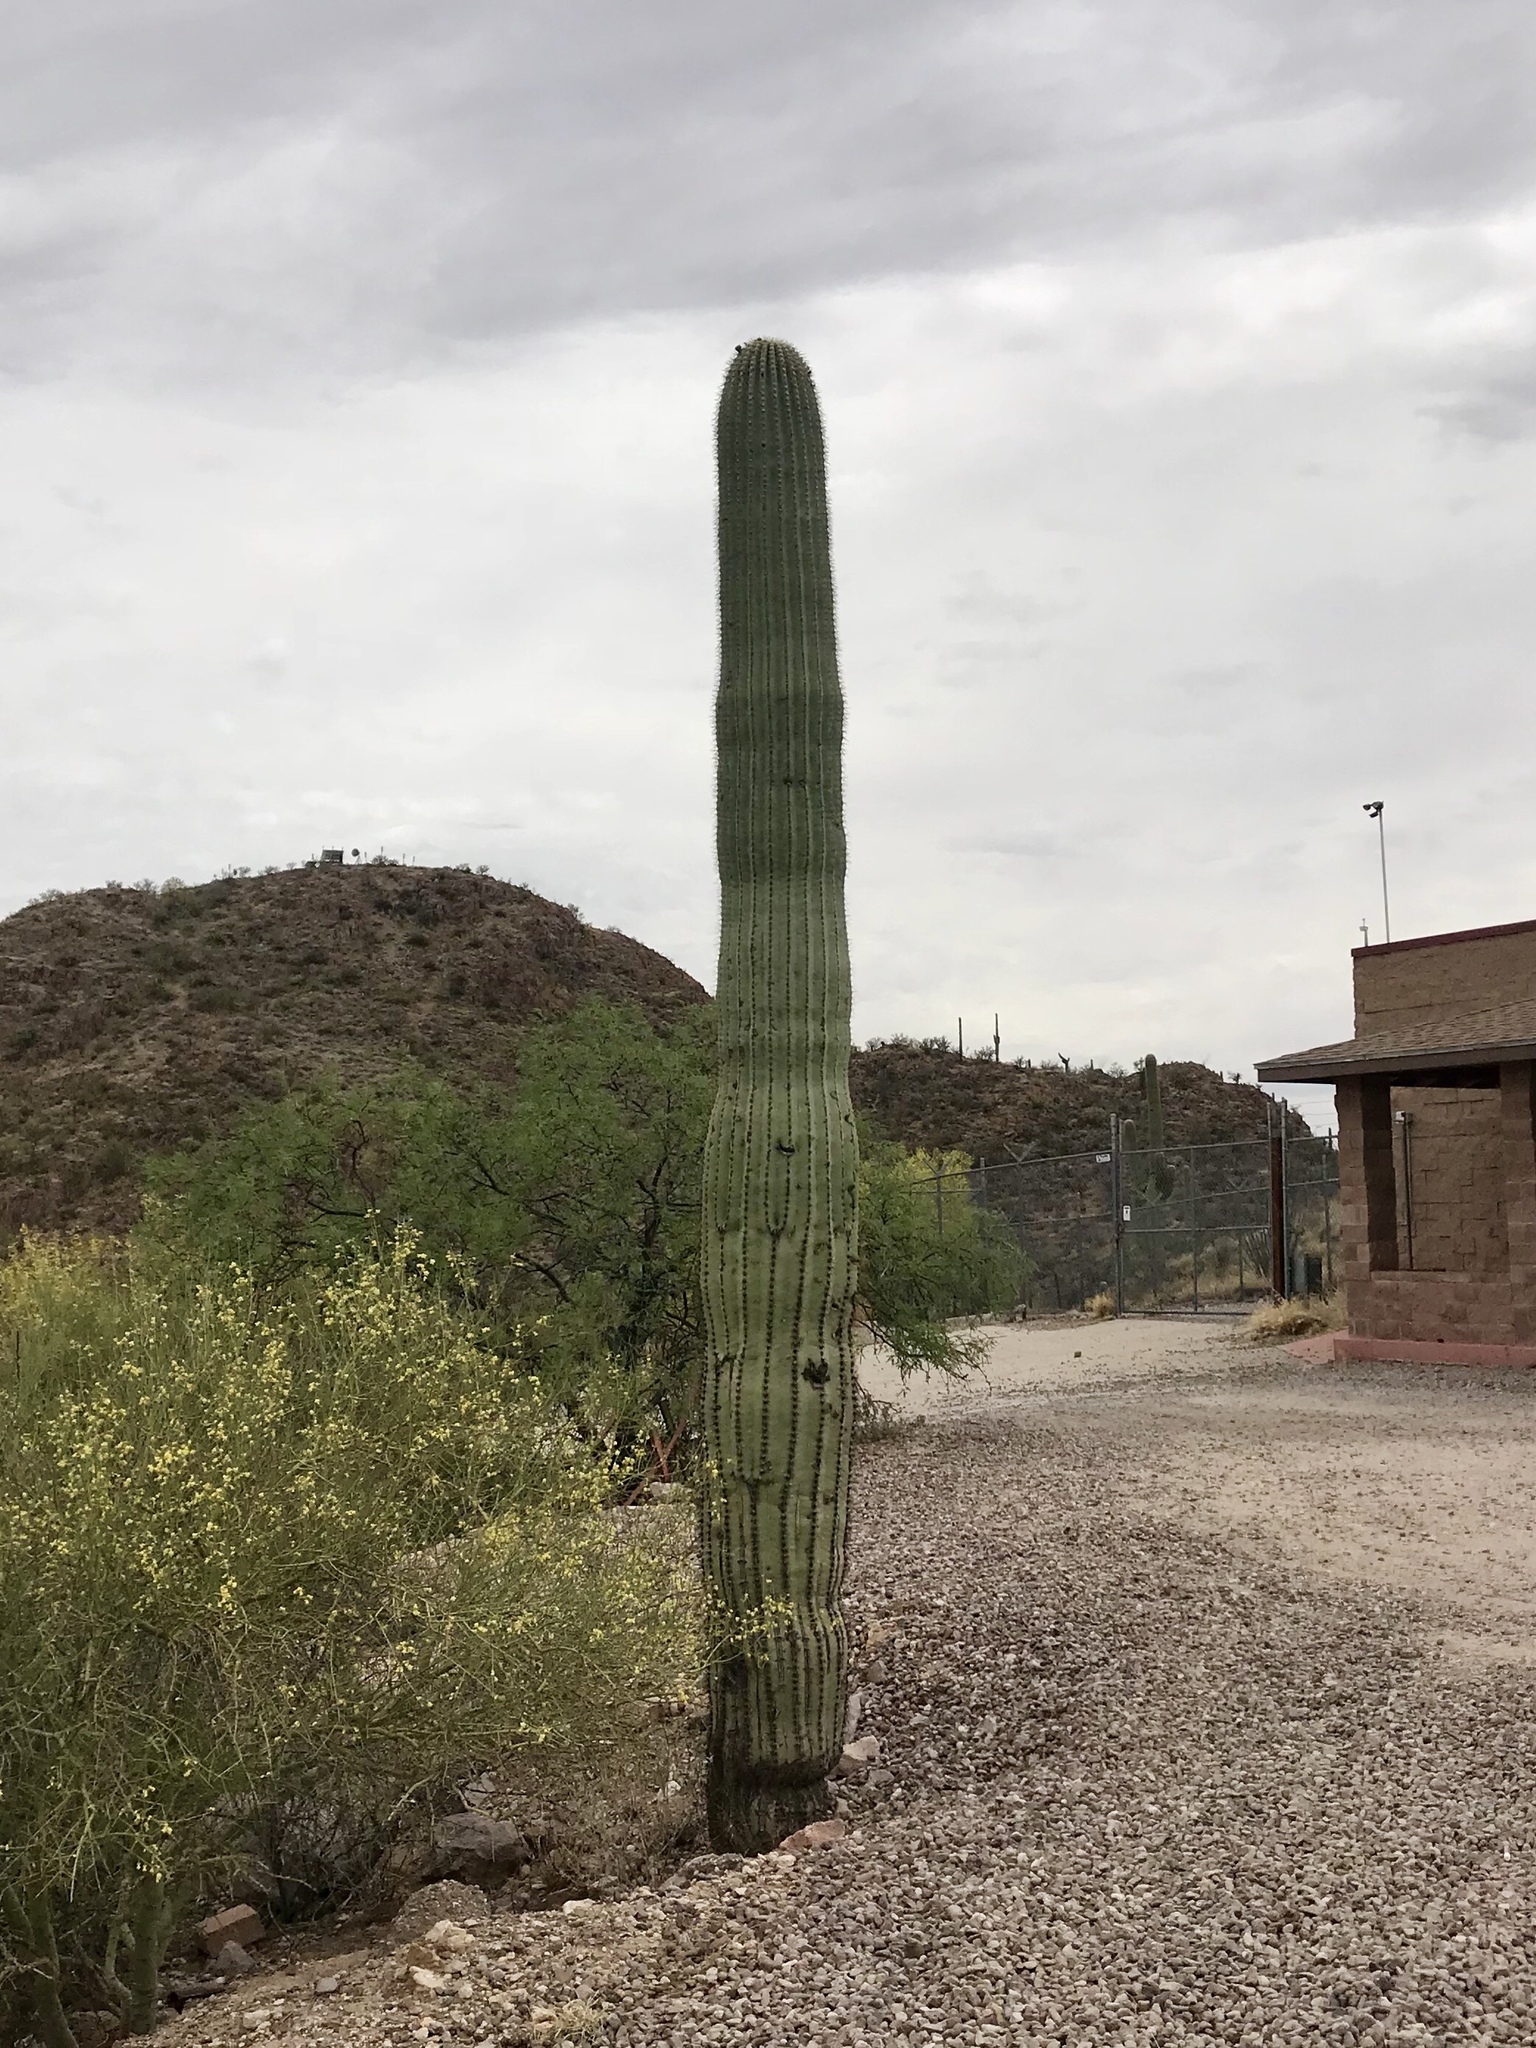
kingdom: Plantae
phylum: Tracheophyta
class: Magnoliopsida
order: Caryophyllales
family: Cactaceae
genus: Carnegiea
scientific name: Carnegiea gigantea
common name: Saguaro
